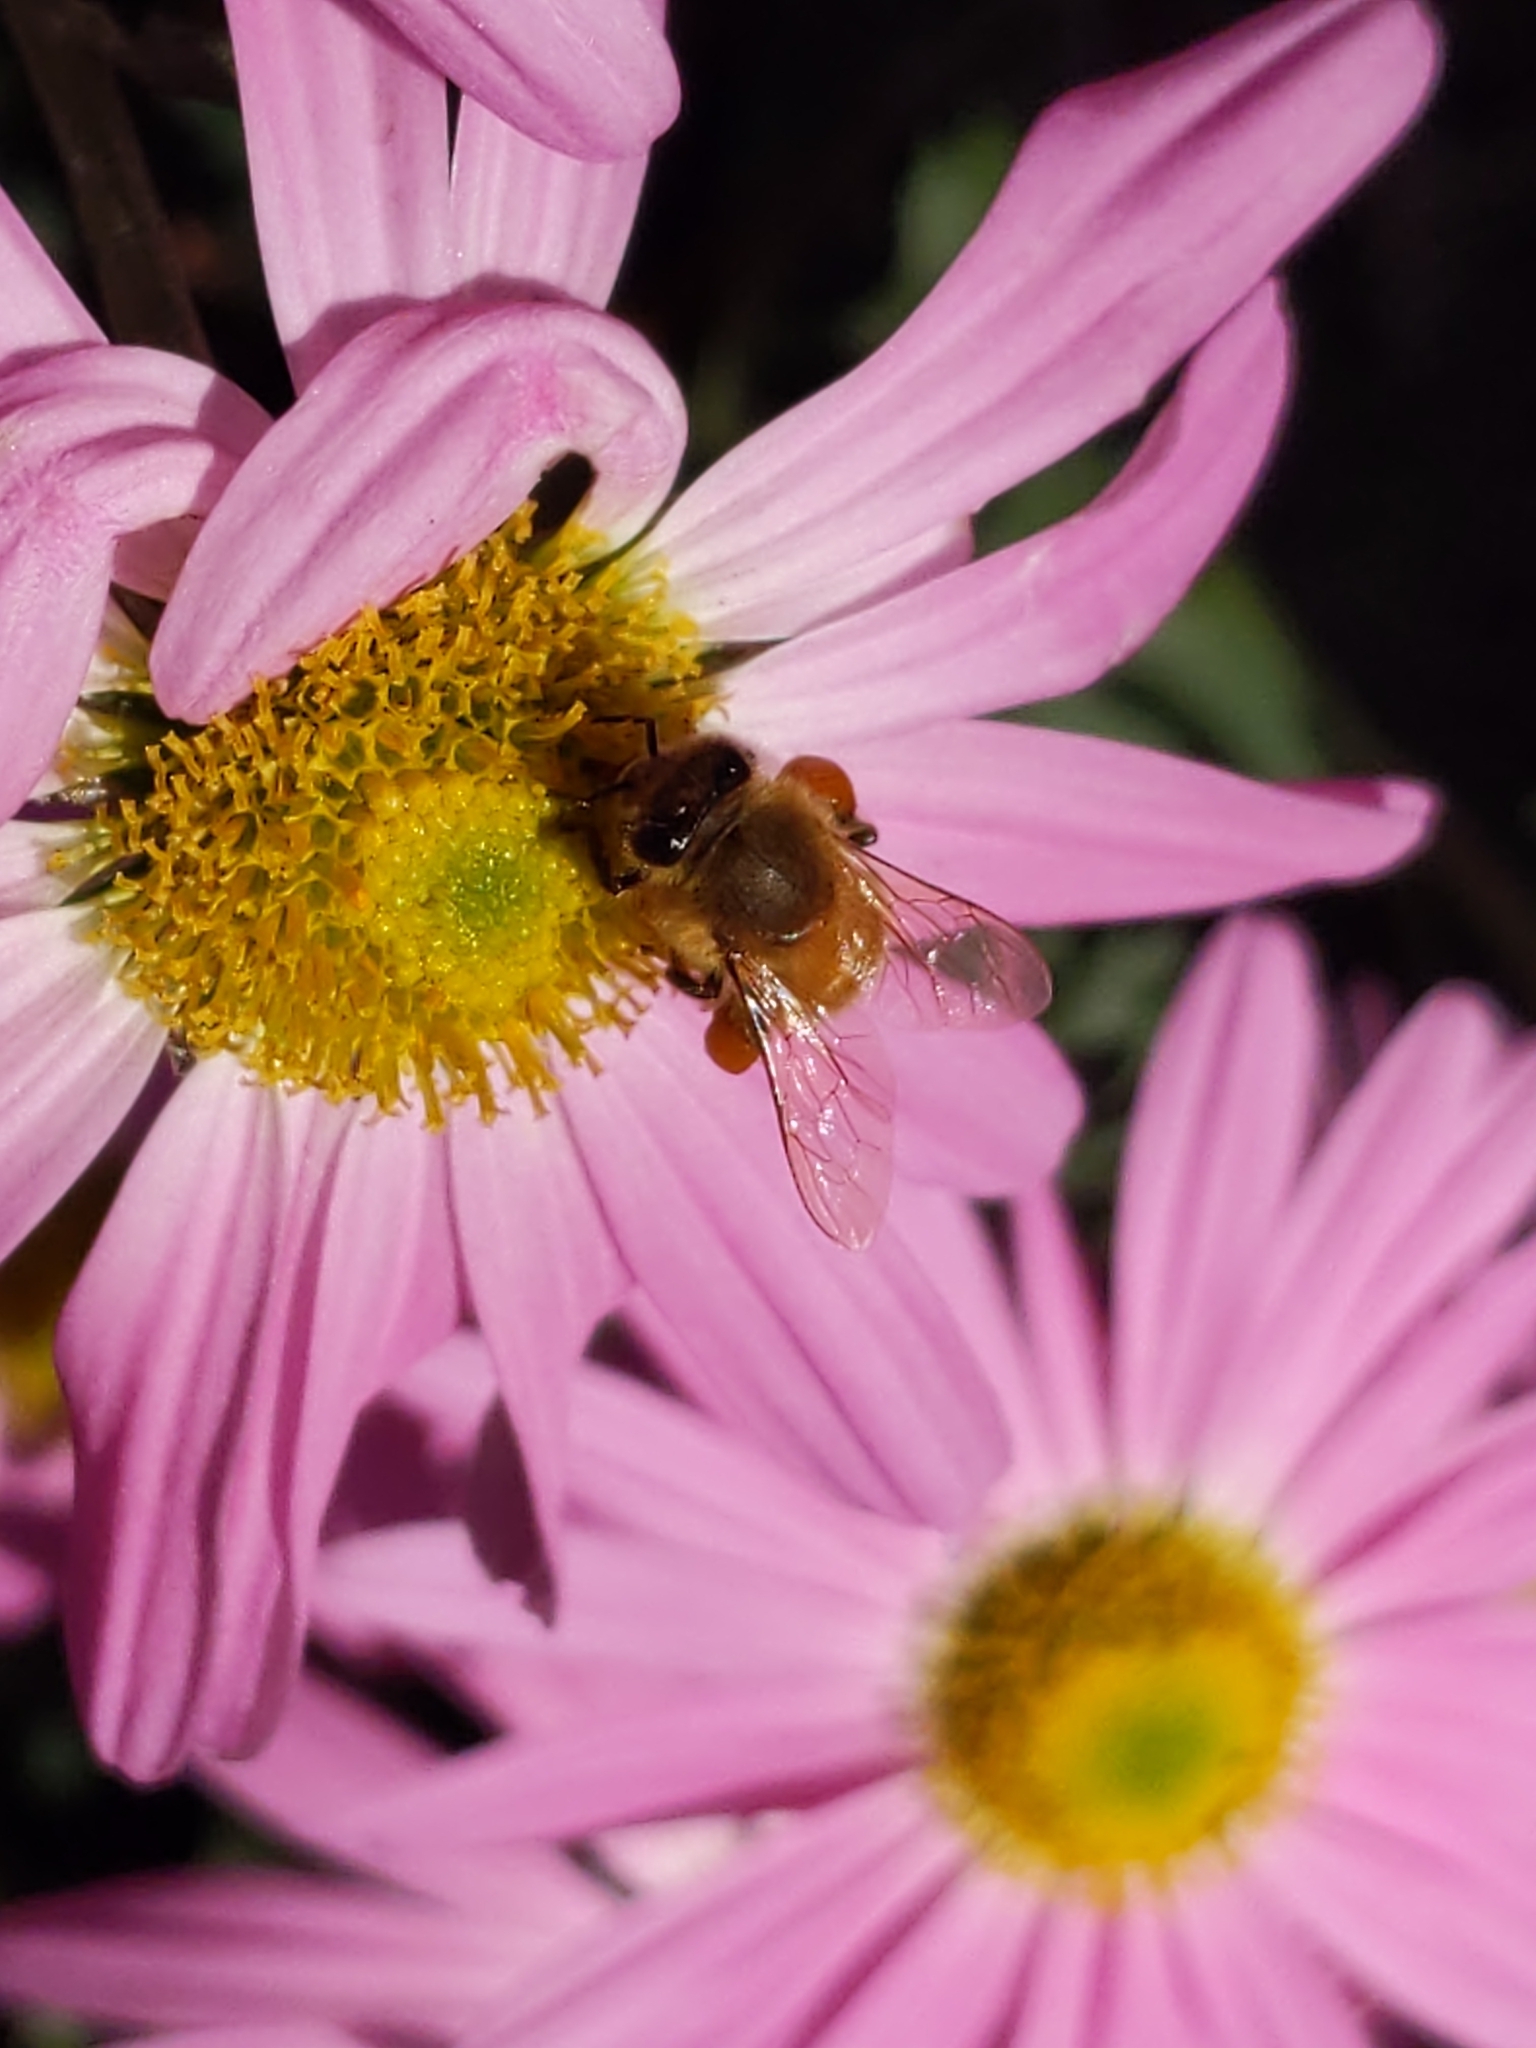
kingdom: Animalia
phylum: Arthropoda
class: Insecta
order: Hymenoptera
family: Apidae
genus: Apis
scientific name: Apis mellifera
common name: Honey bee
